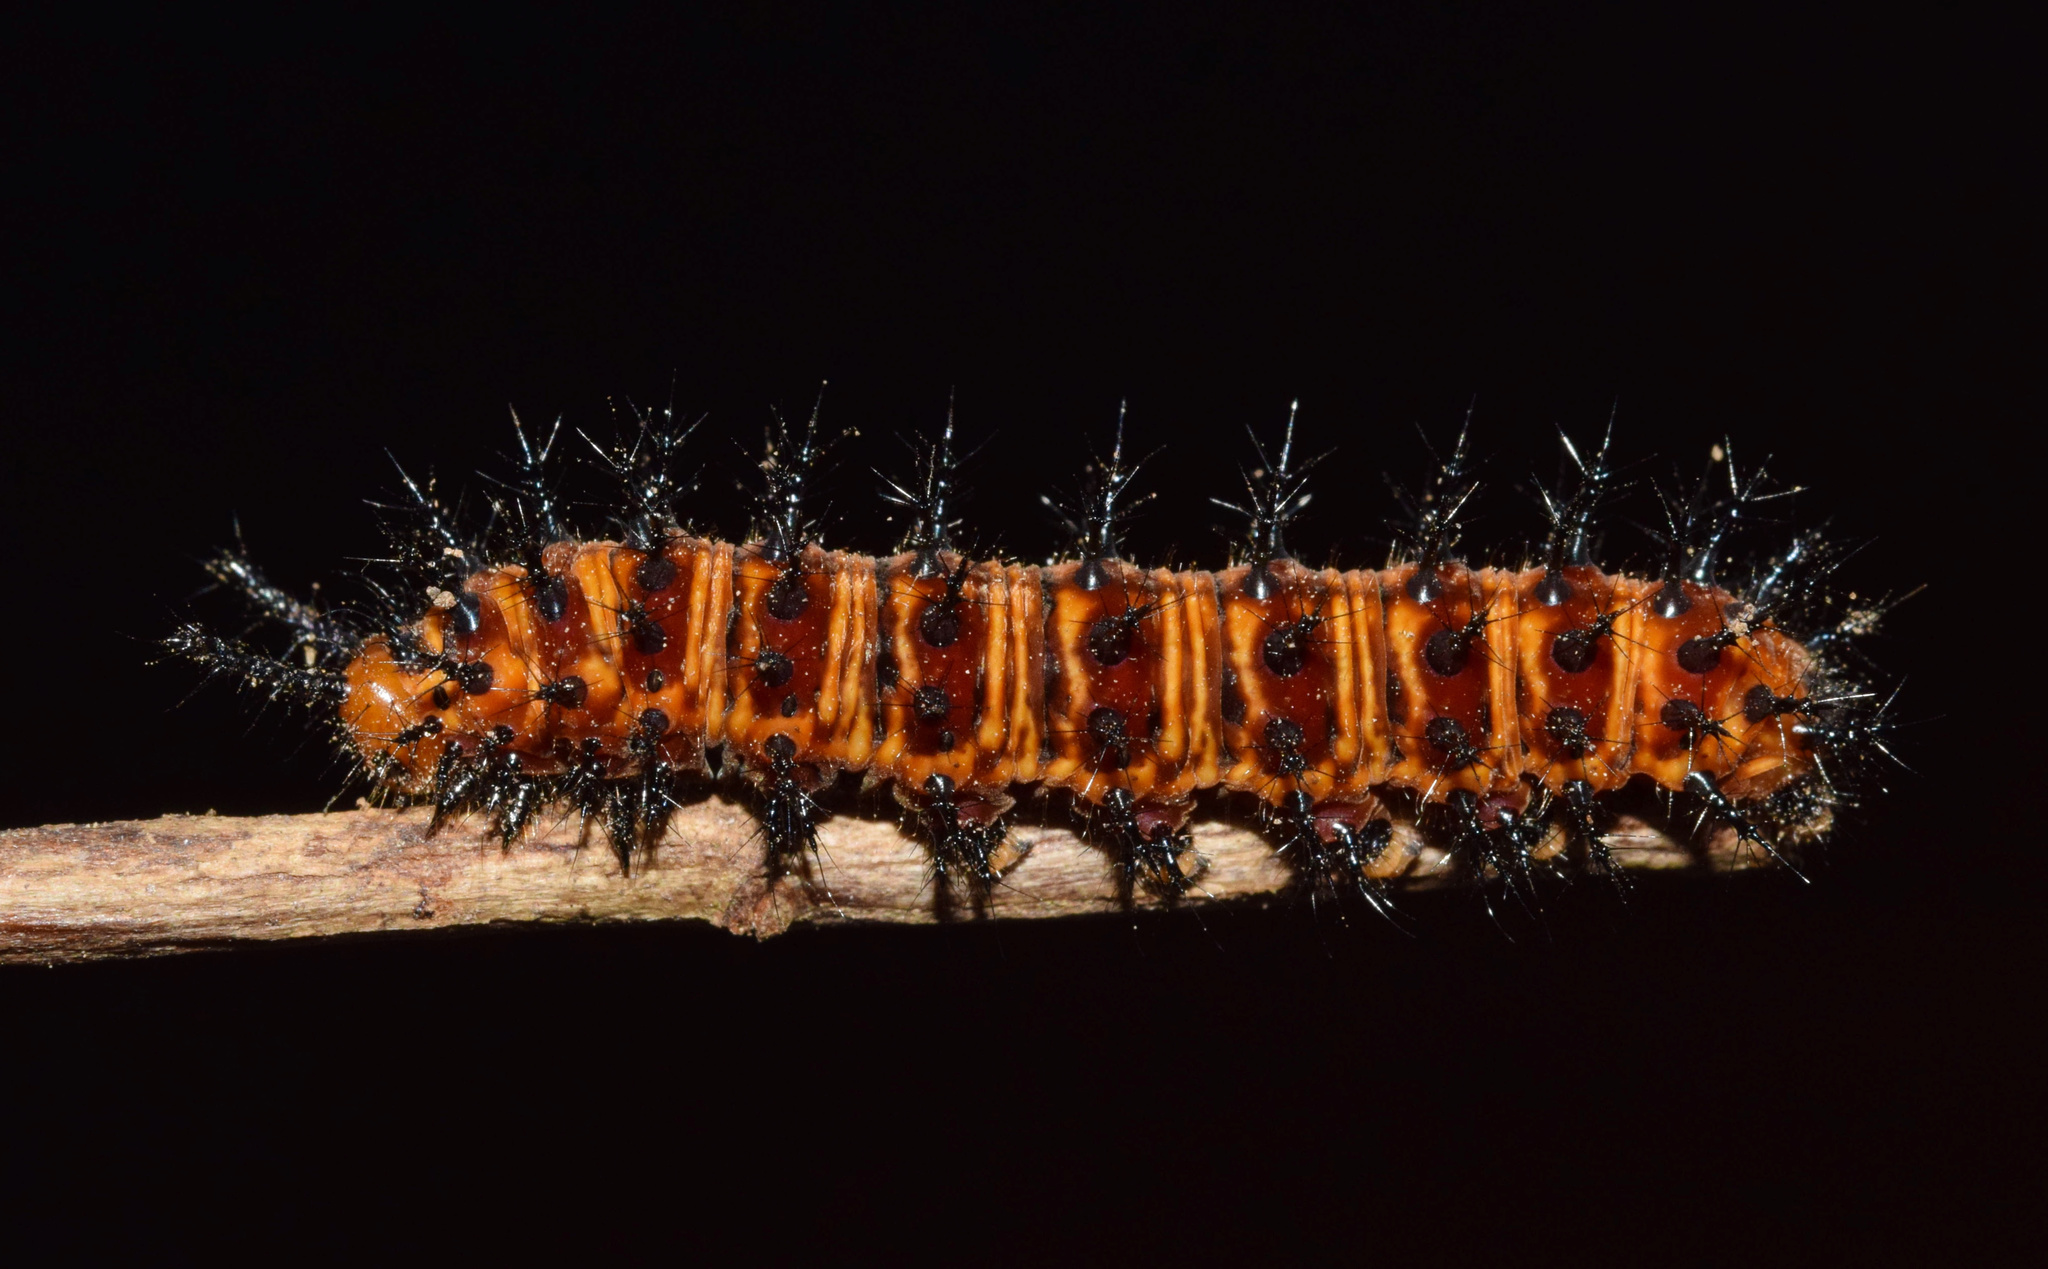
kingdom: Animalia
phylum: Arthropoda
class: Insecta
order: Lepidoptera
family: Nymphalidae
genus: Precis
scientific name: Precis octavia
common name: Gaudy commodore
